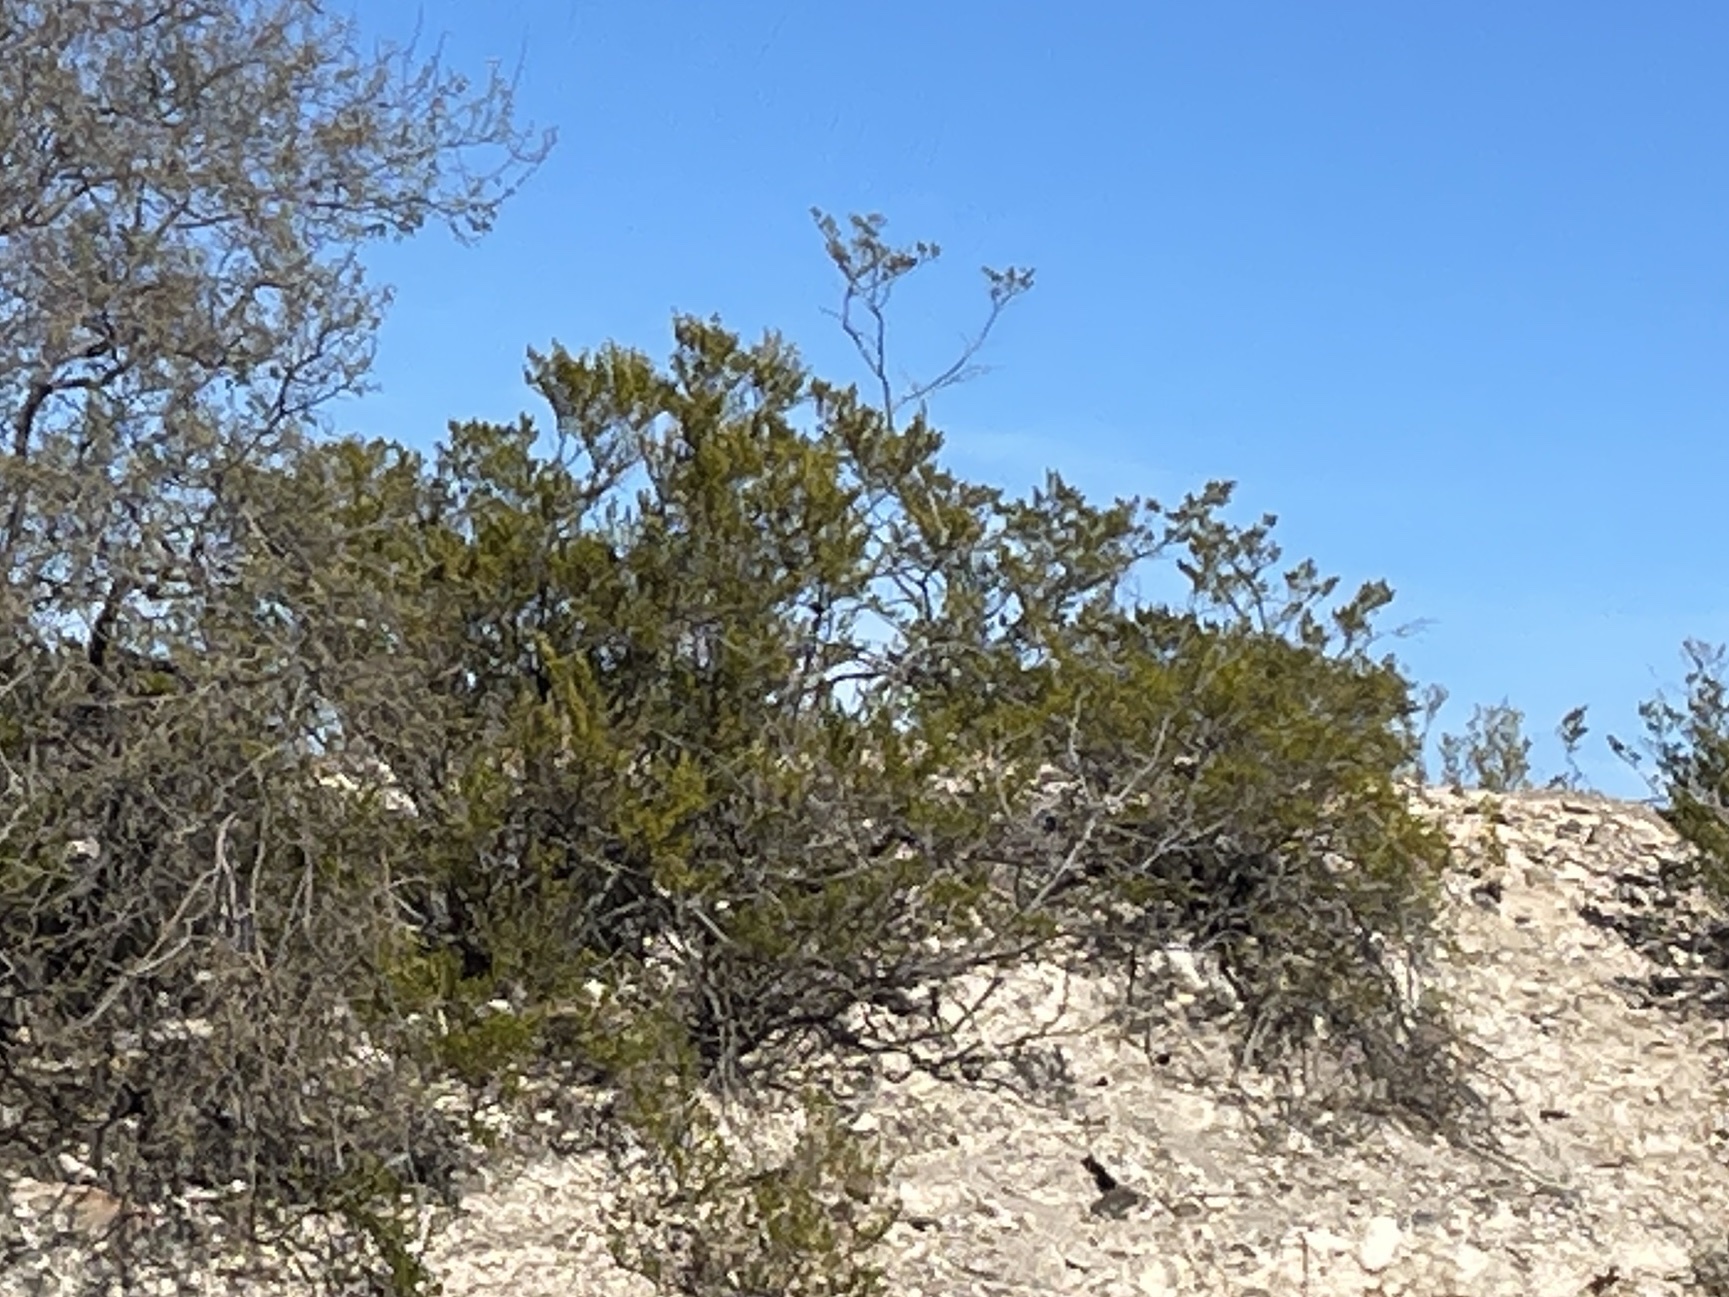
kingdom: Plantae
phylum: Tracheophyta
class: Magnoliopsida
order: Zygophyllales
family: Zygophyllaceae
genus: Larrea
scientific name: Larrea tridentata
